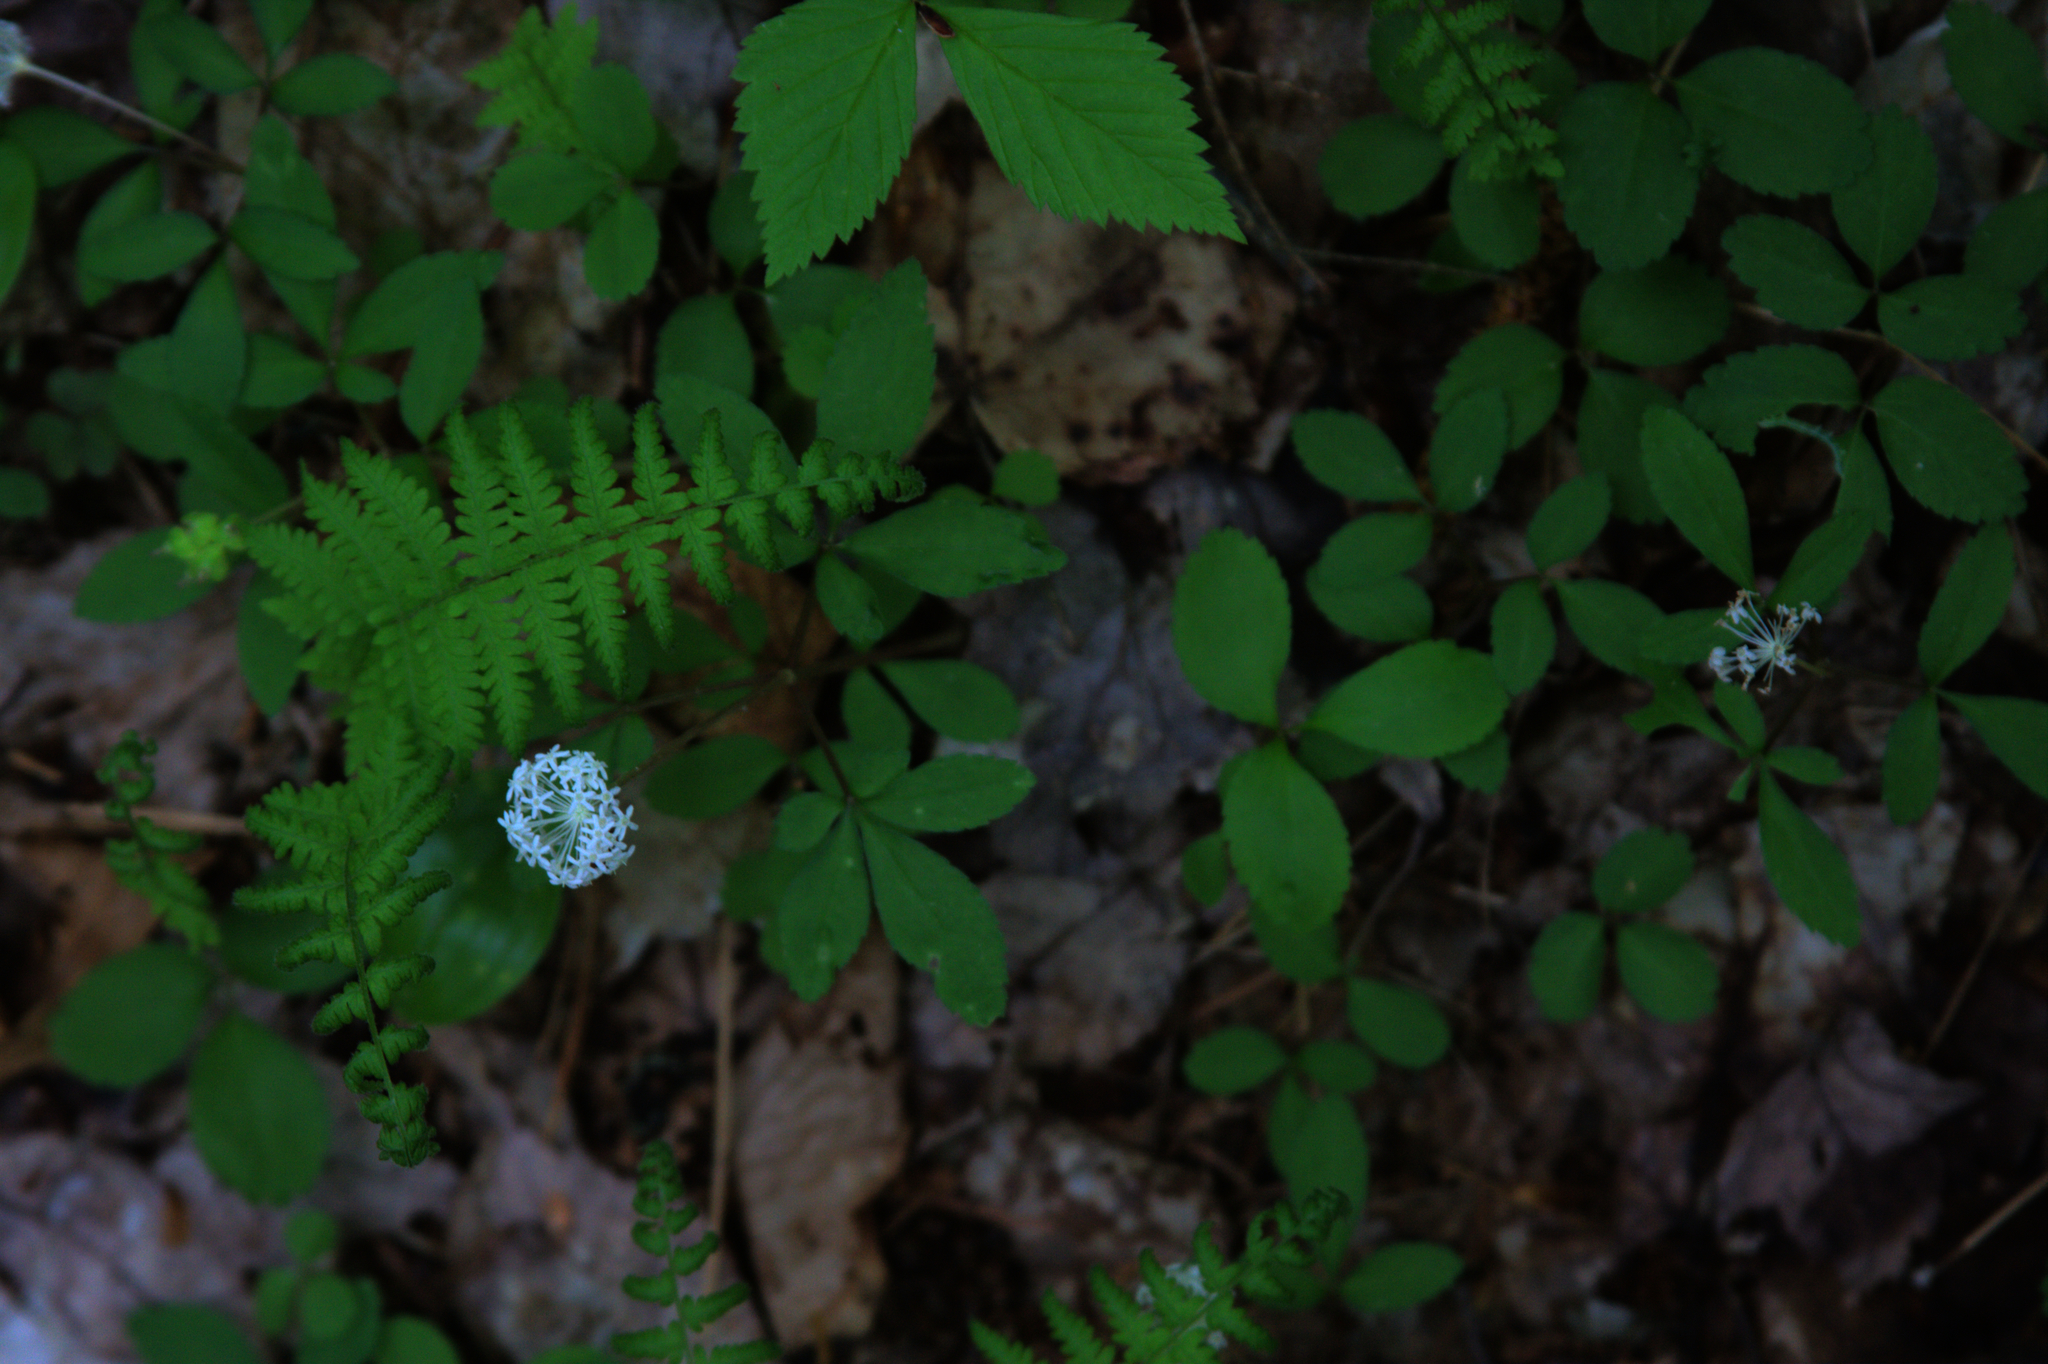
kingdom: Plantae
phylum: Tracheophyta
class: Magnoliopsida
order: Apiales
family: Araliaceae
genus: Panax
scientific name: Panax trifolius
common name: Dwarf ginseng
